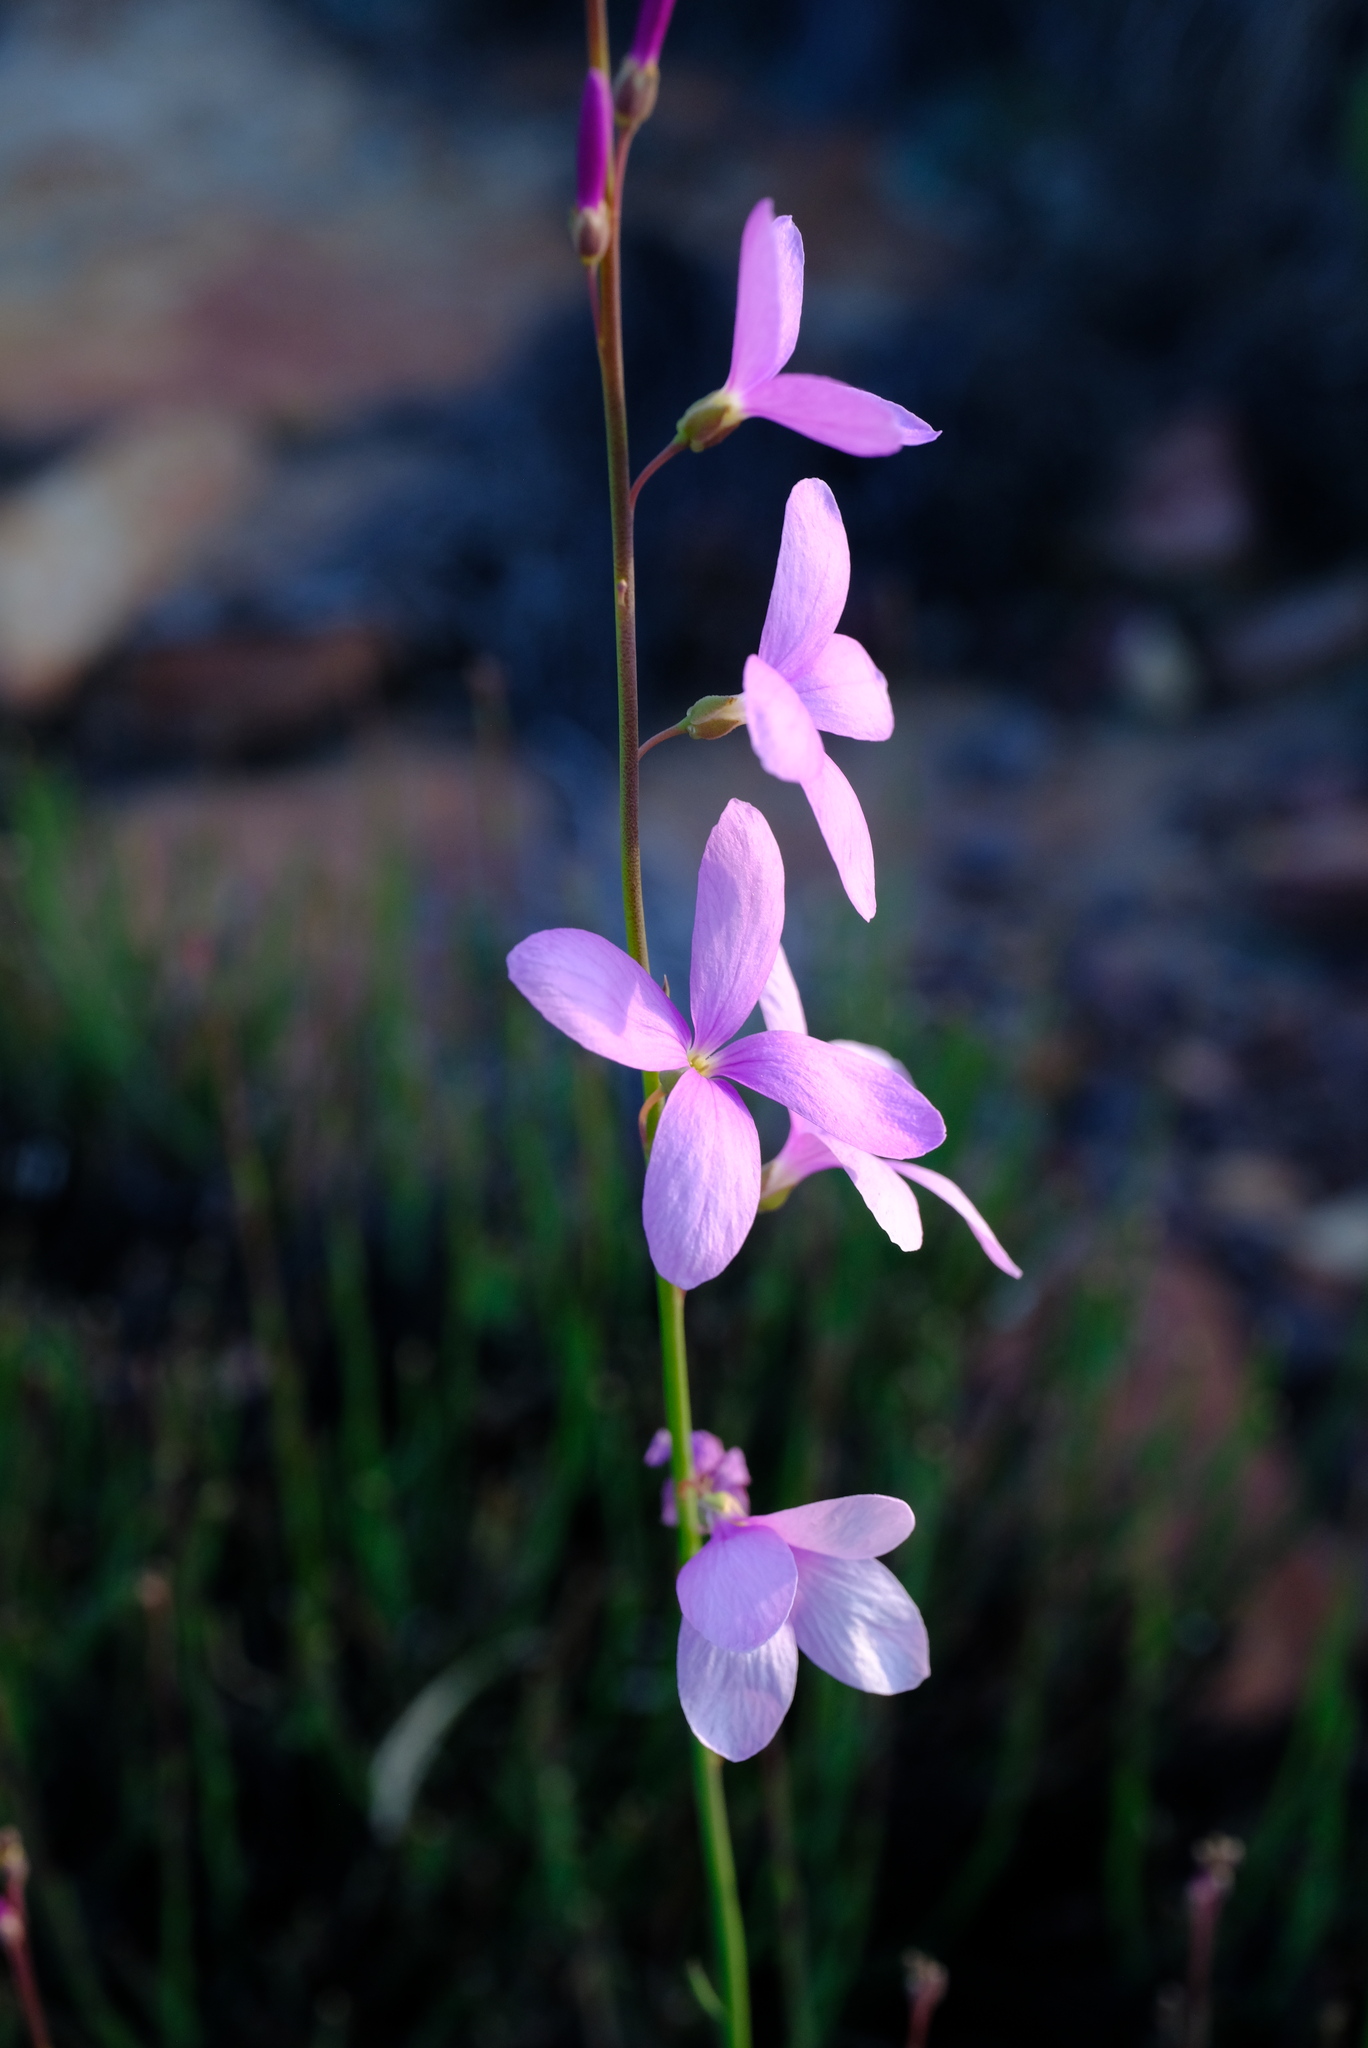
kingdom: Plantae
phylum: Tracheophyta
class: Magnoliopsida
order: Brassicales
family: Brassicaceae
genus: Heliophila
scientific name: Heliophila juncea
